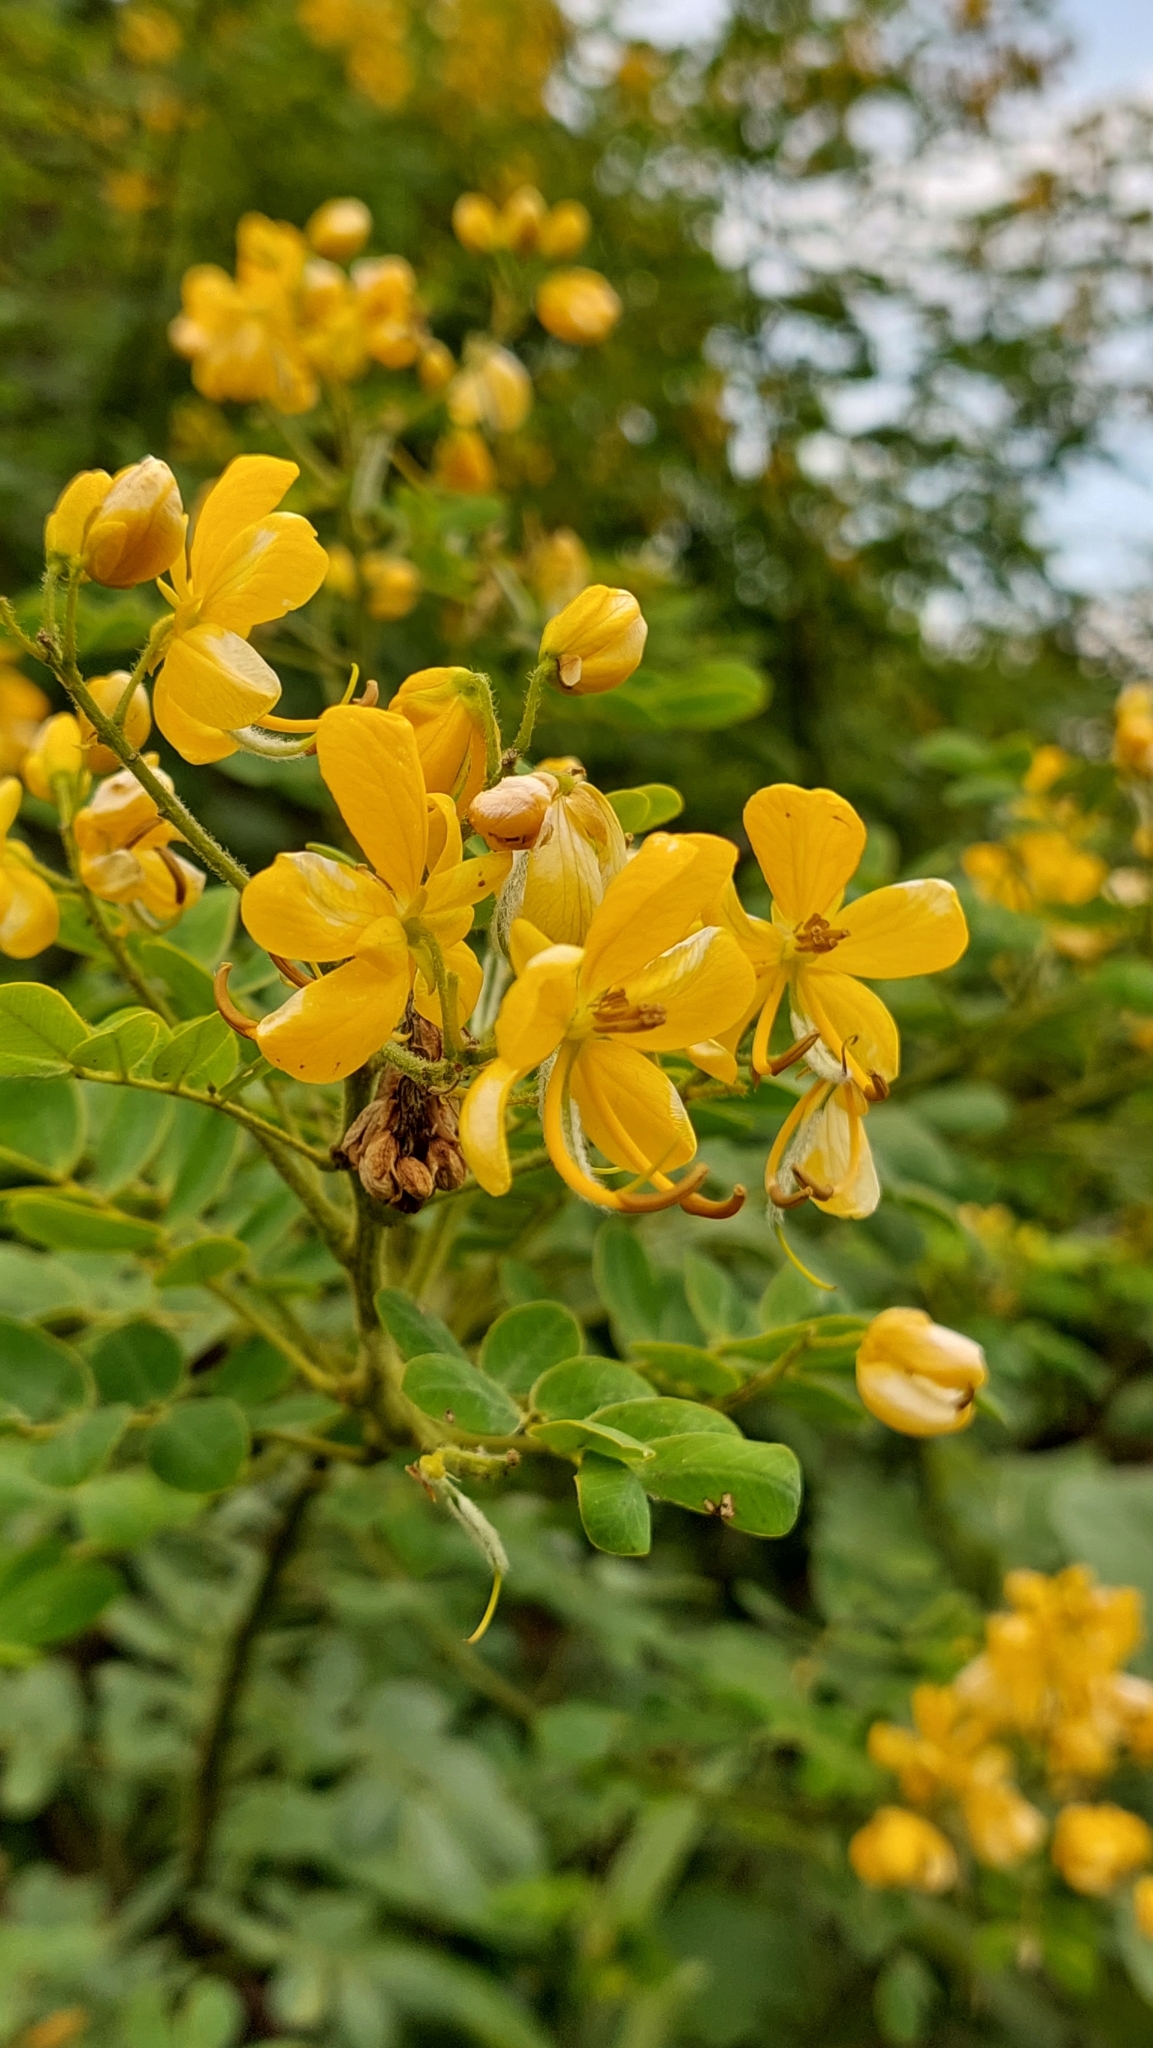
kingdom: Plantae
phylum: Tracheophyta
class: Magnoliopsida
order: Fabales
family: Fabaceae
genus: Senna
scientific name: Senna pendula
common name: Easter cassia
